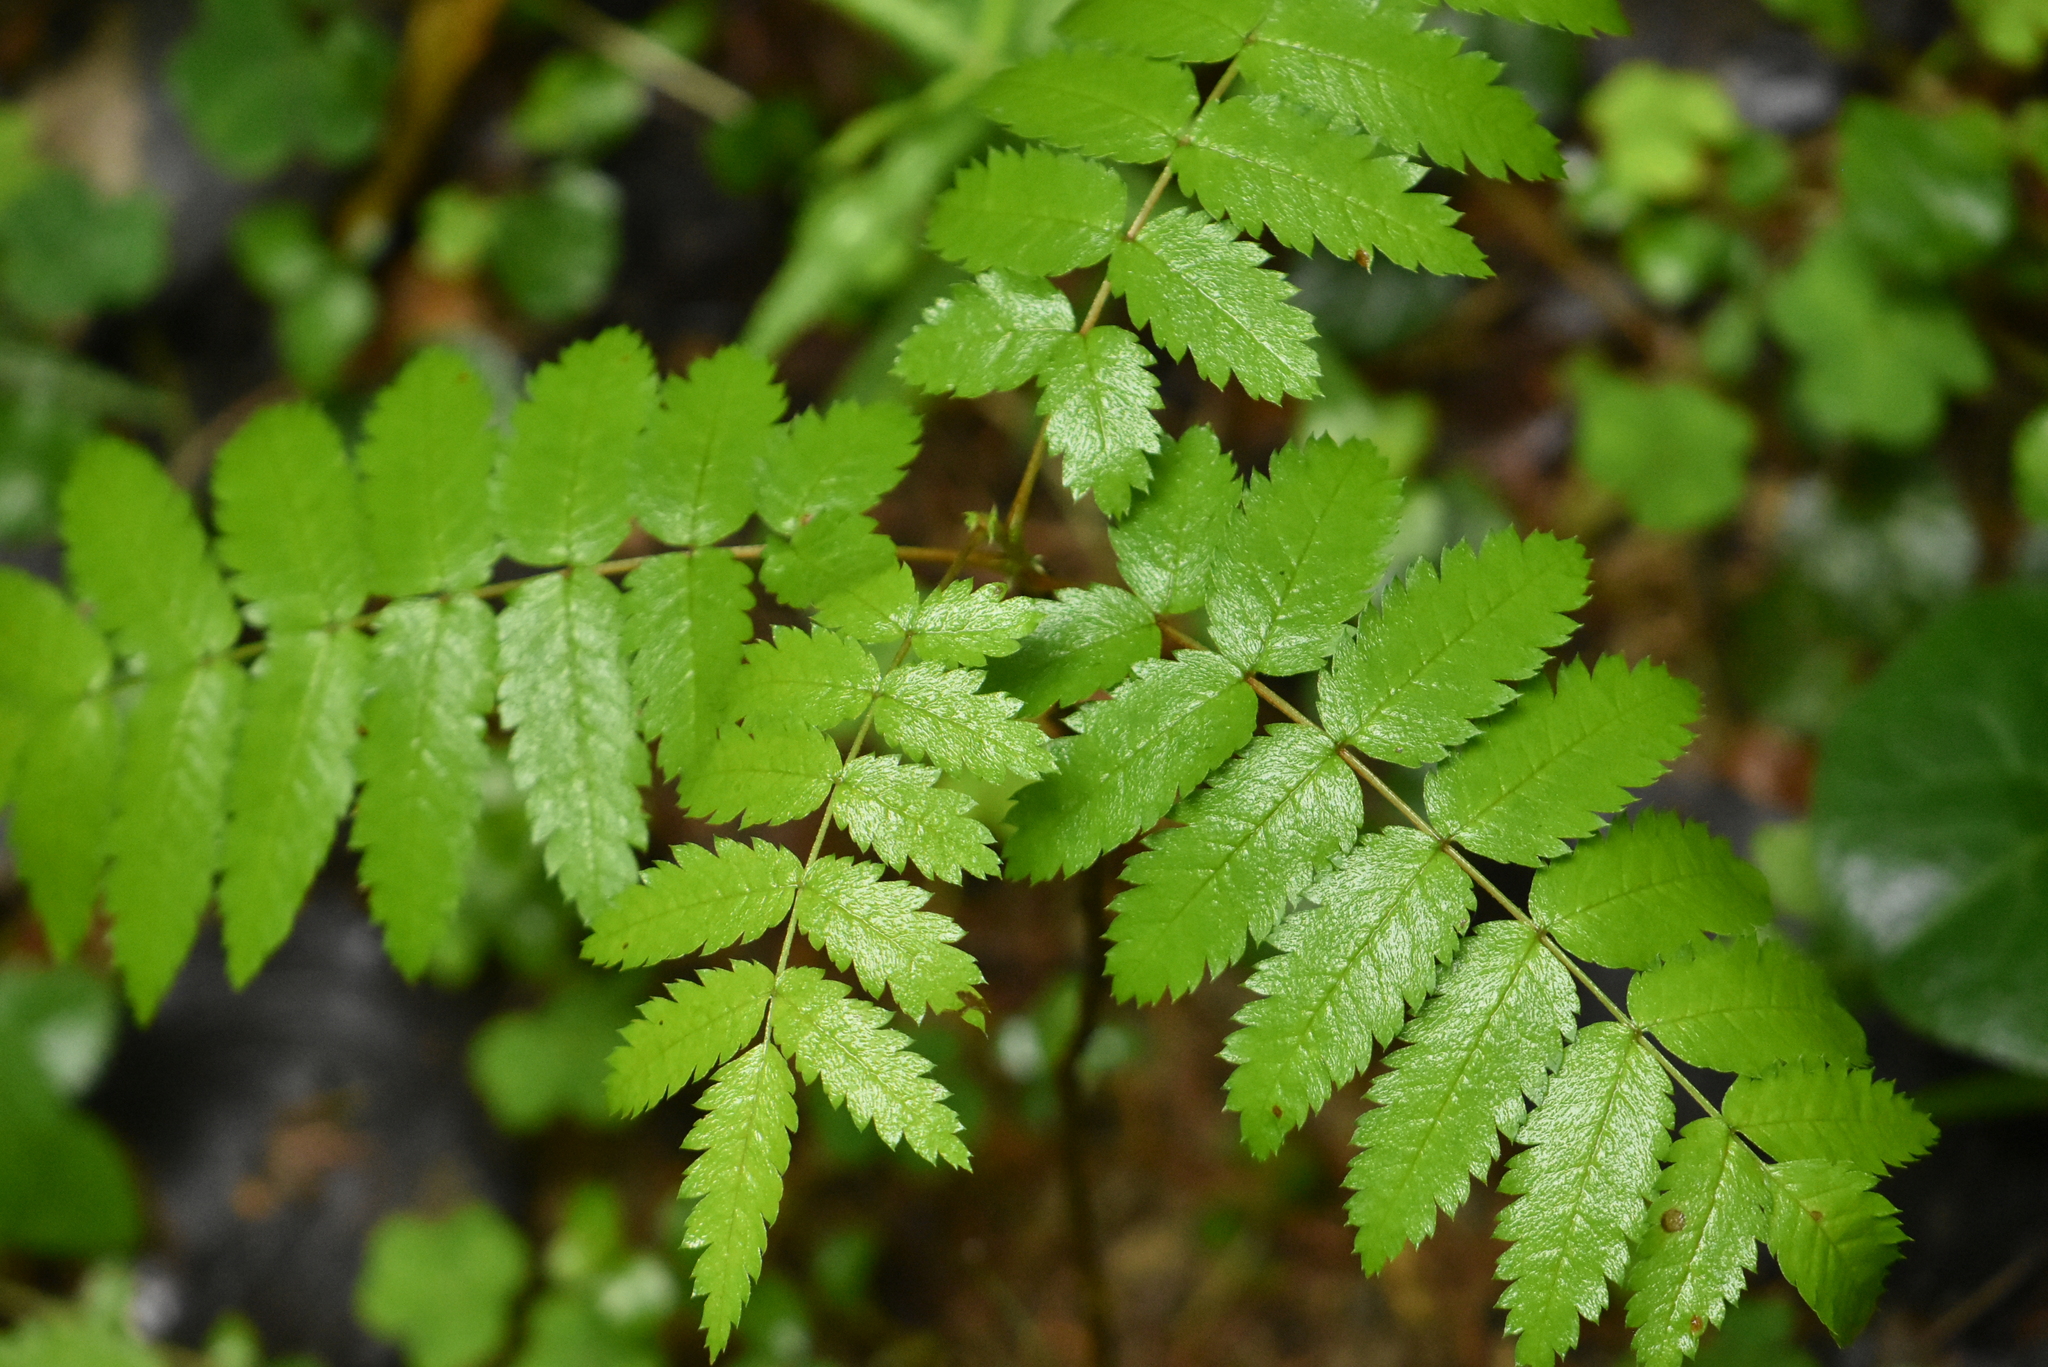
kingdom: Plantae
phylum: Tracheophyta
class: Magnoliopsida
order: Rosales
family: Rosaceae
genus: Sorbus
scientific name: Sorbus aucuparia
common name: Rowan
